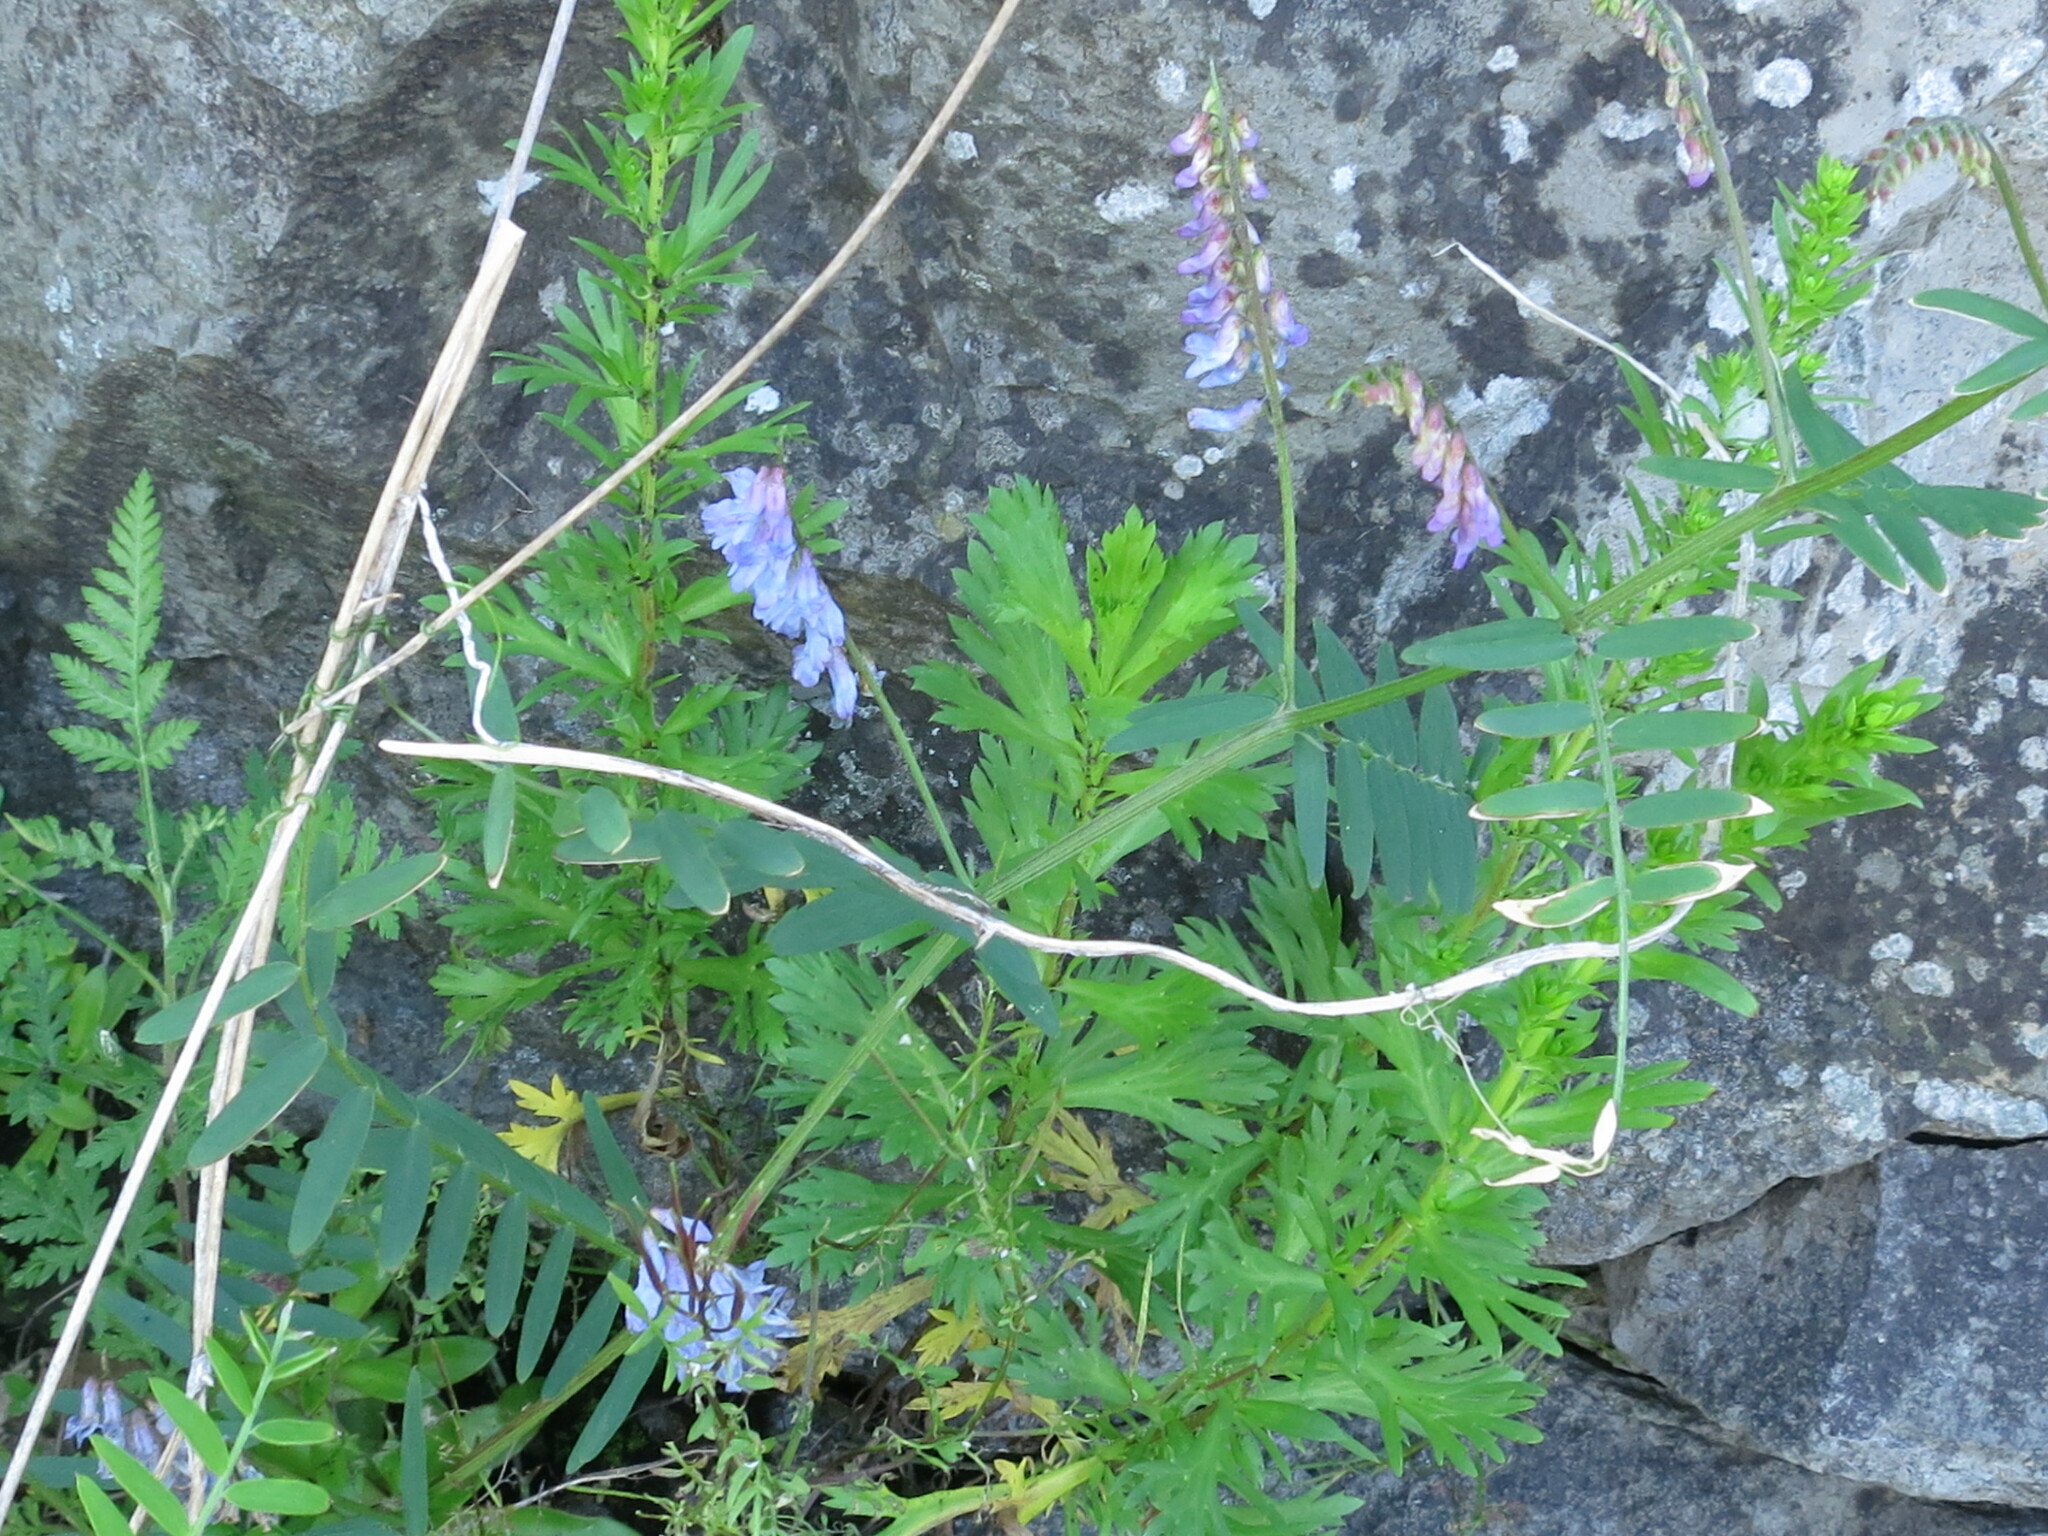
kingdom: Plantae
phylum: Tracheophyta
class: Magnoliopsida
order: Fabales
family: Fabaceae
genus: Vicia
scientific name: Vicia cracca
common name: Bird vetch
